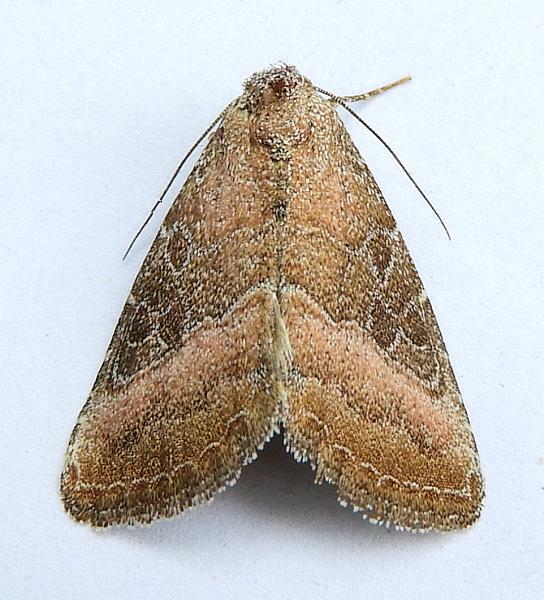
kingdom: Animalia
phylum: Arthropoda
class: Insecta
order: Lepidoptera
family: Noctuidae
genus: Ogdoconta
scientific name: Ogdoconta cinereola
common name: Common pinkband
